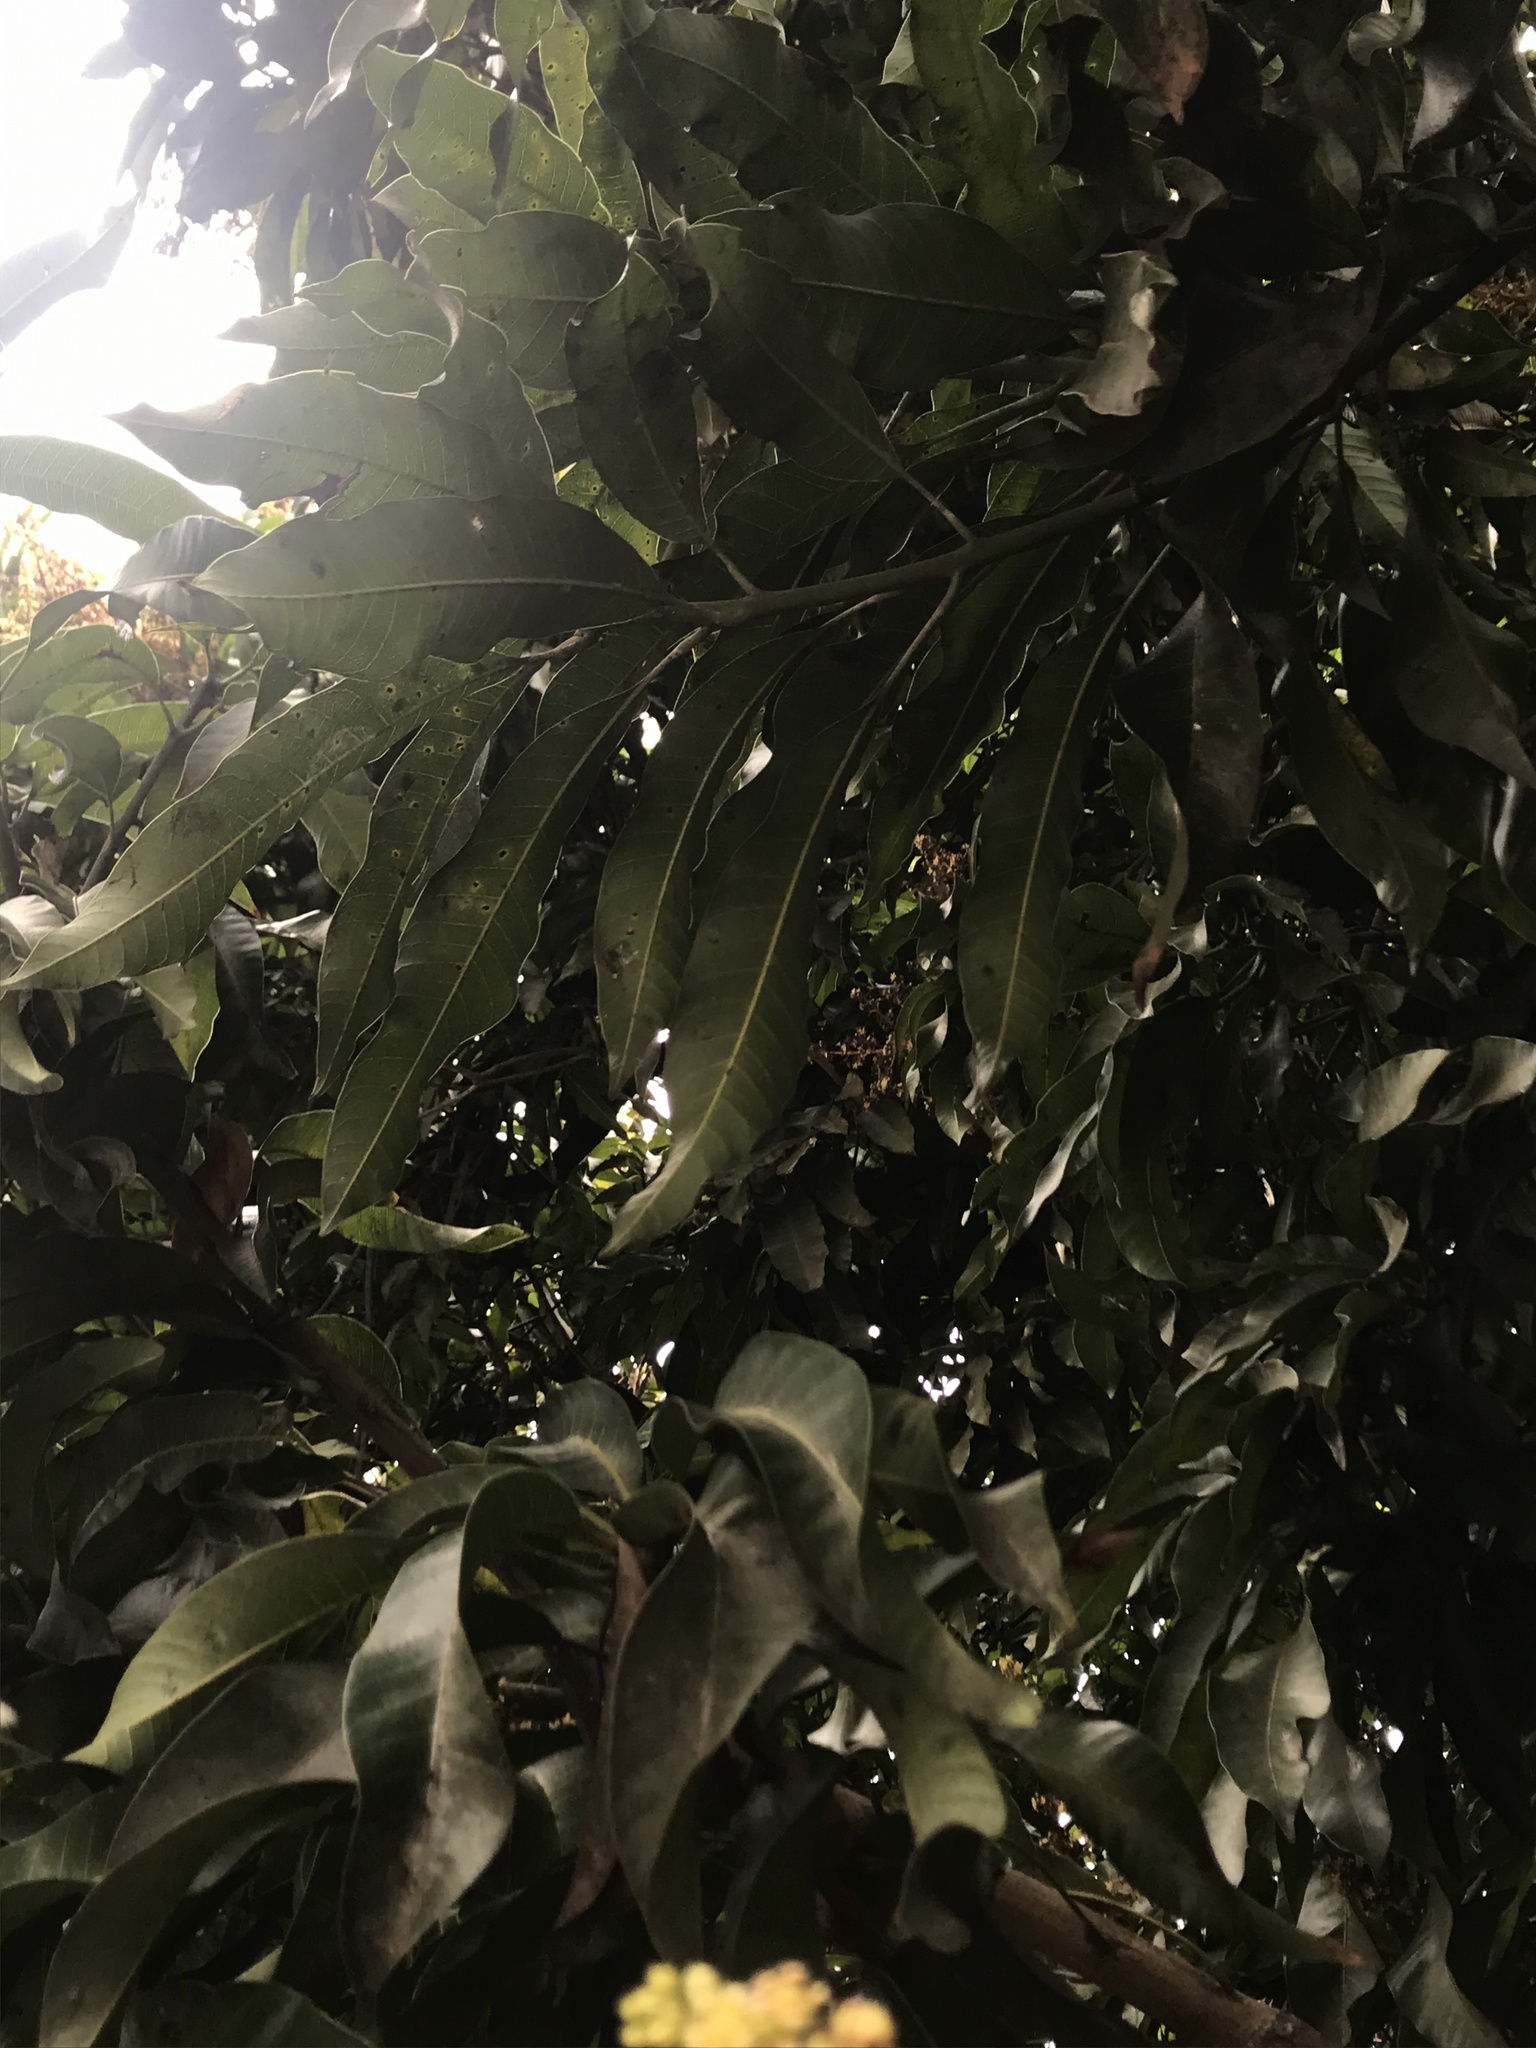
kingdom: Plantae
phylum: Tracheophyta
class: Magnoliopsida
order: Sapindales
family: Anacardiaceae
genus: Mangifera
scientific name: Mangifera indica
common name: Mango
